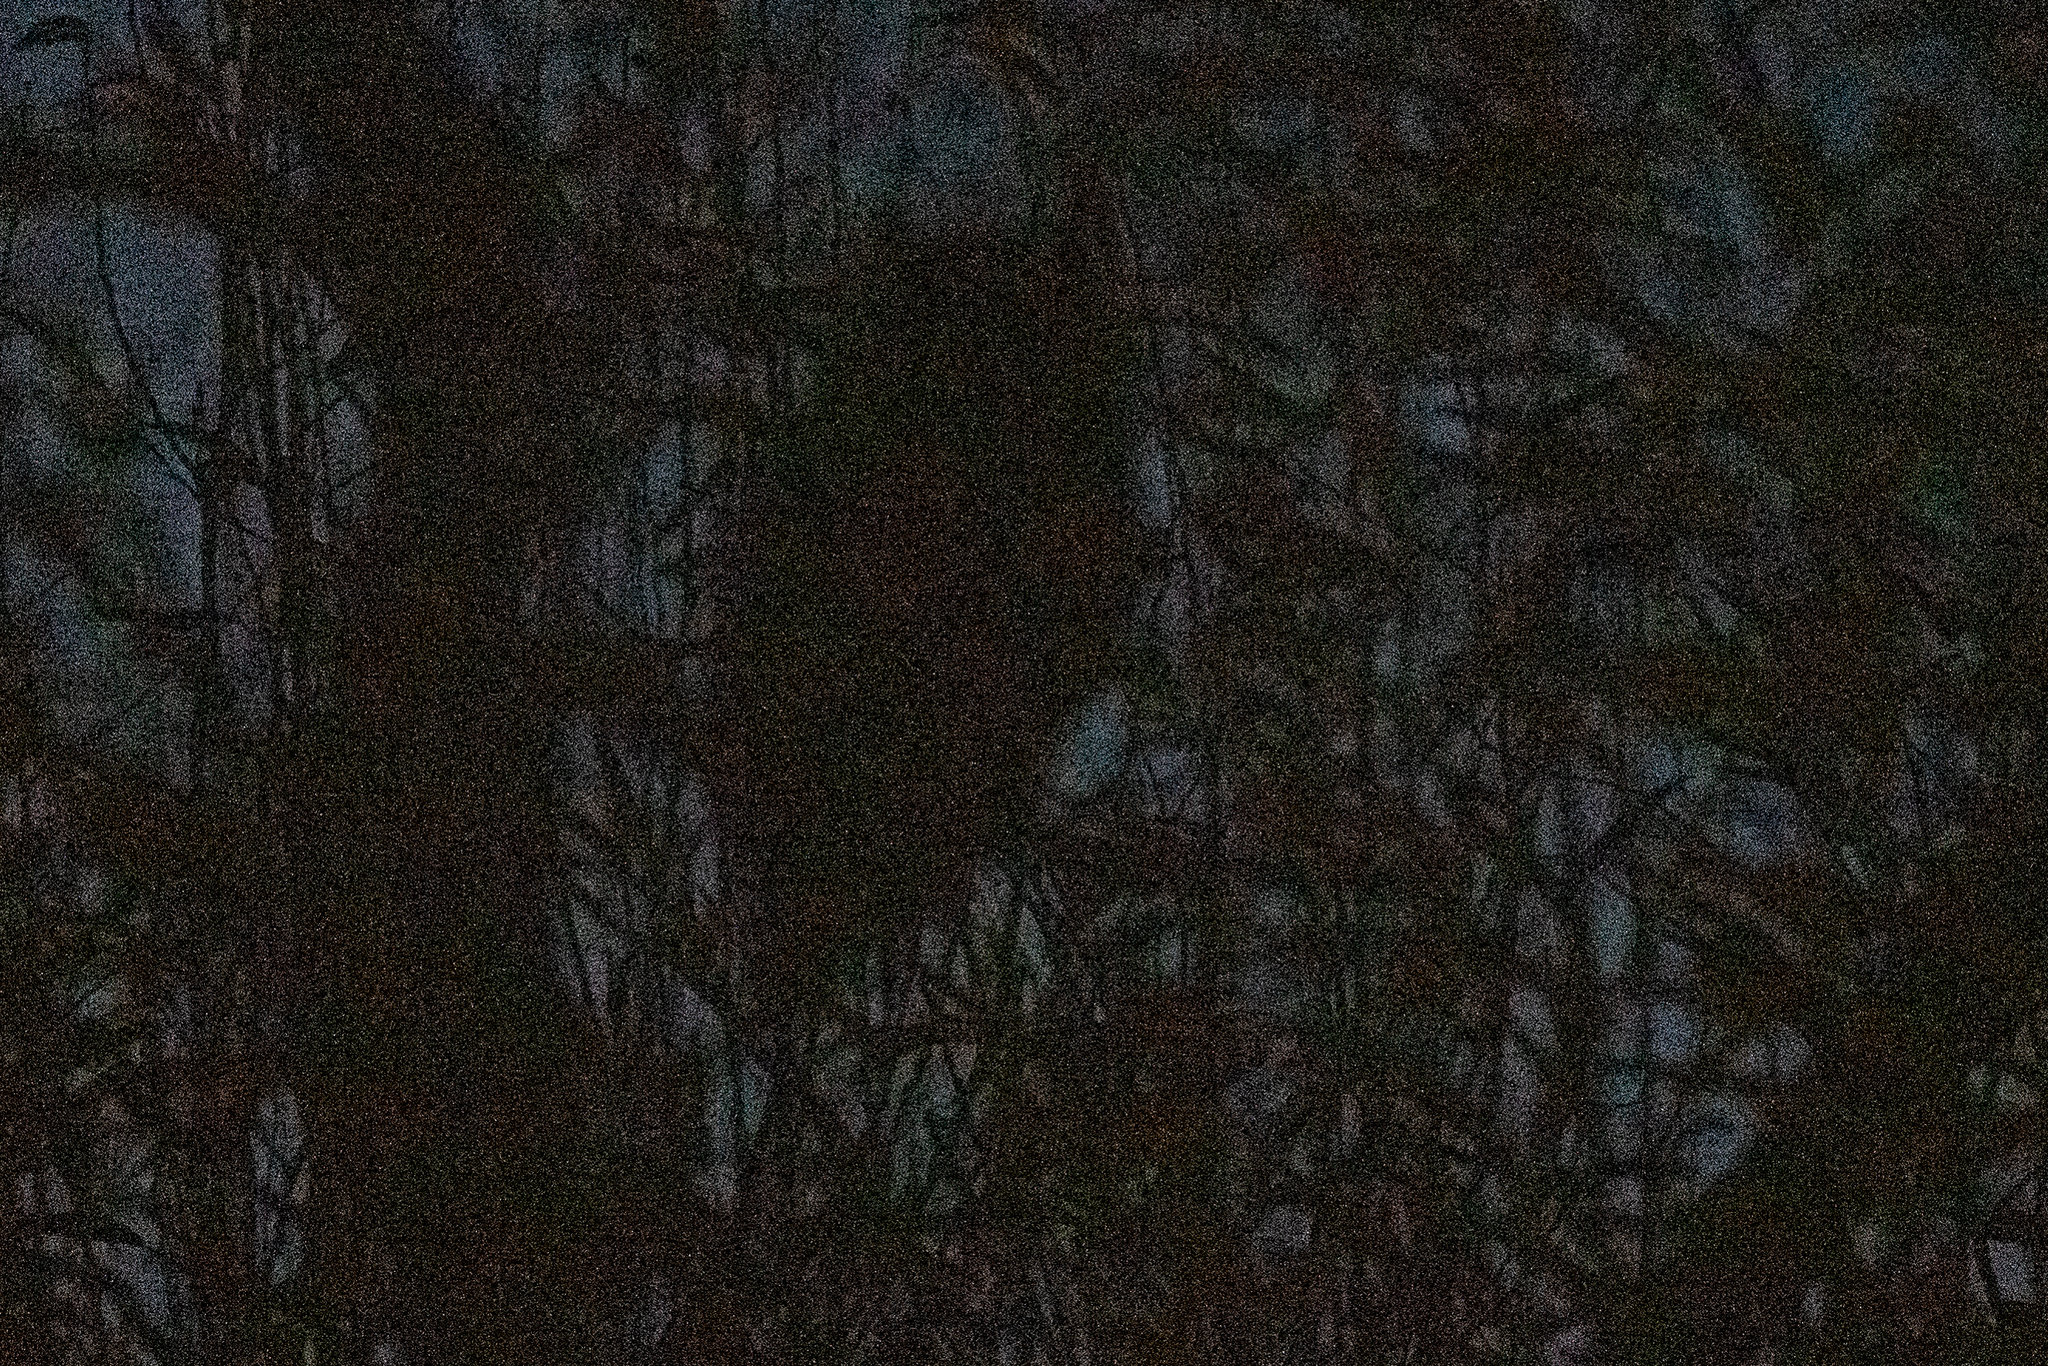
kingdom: Animalia
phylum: Chordata
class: Aves
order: Strigiformes
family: Strigidae
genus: Bubo
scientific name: Bubo virginianus
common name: Great horned owl
